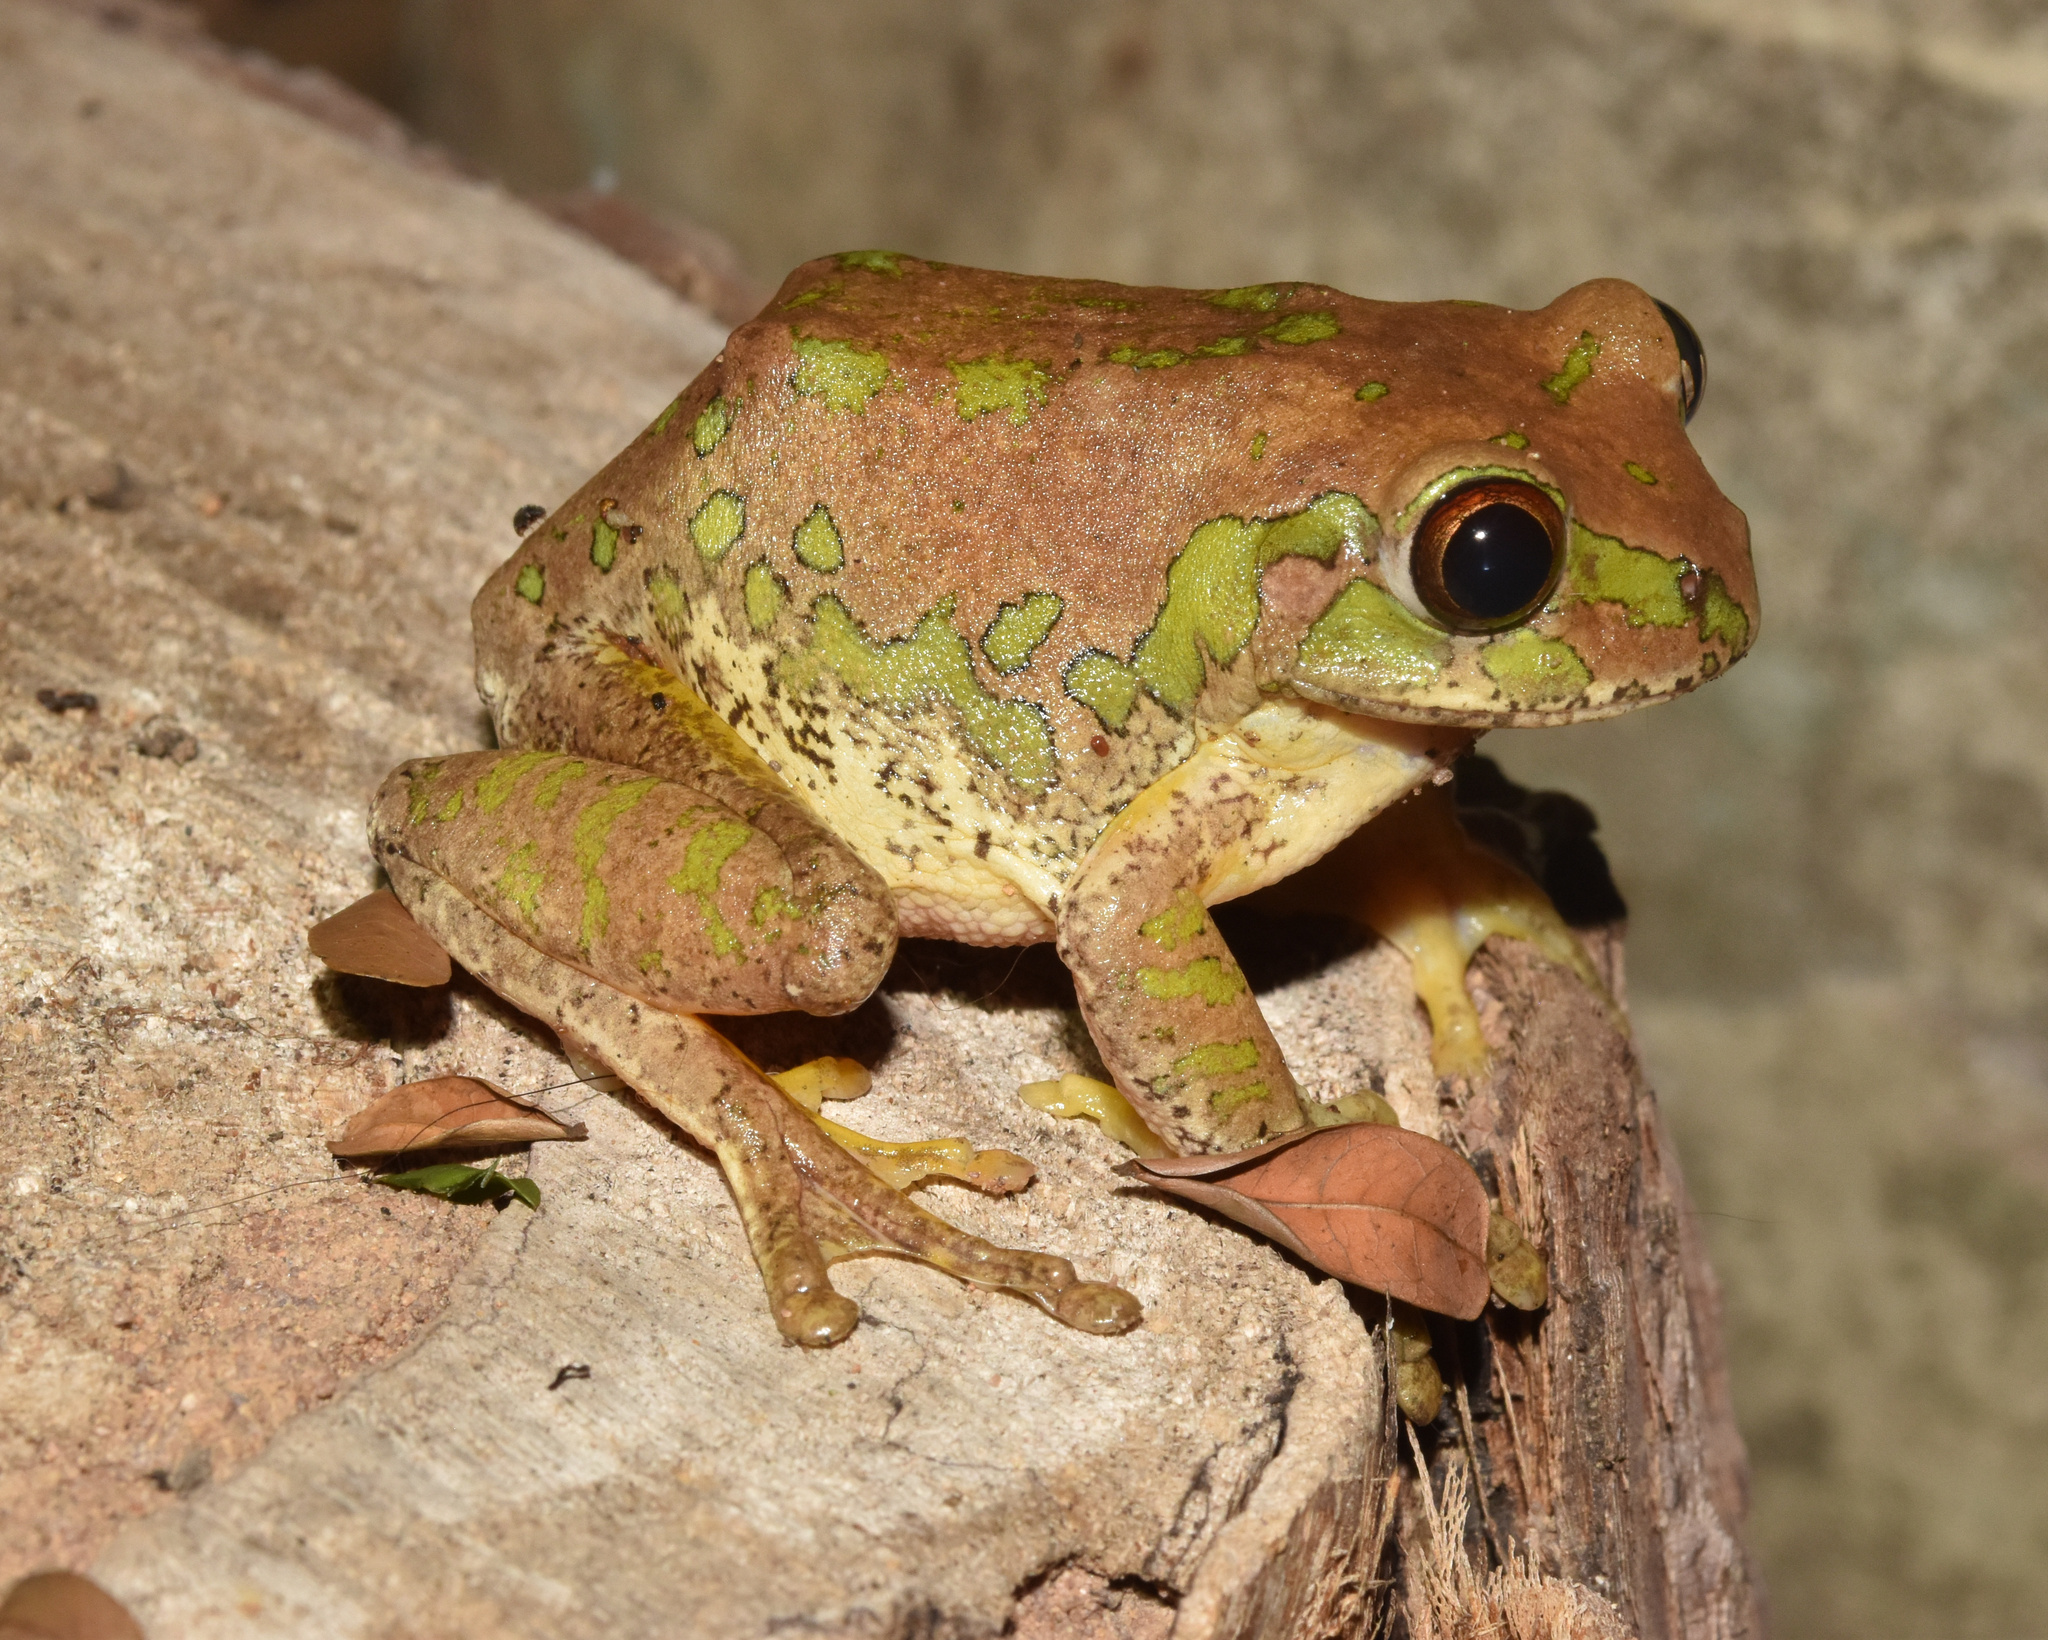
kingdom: Animalia
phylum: Chordata
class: Amphibia
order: Anura
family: Arthroleptidae
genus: Leptopelis
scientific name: Leptopelis natalensis
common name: Natal tree frog
